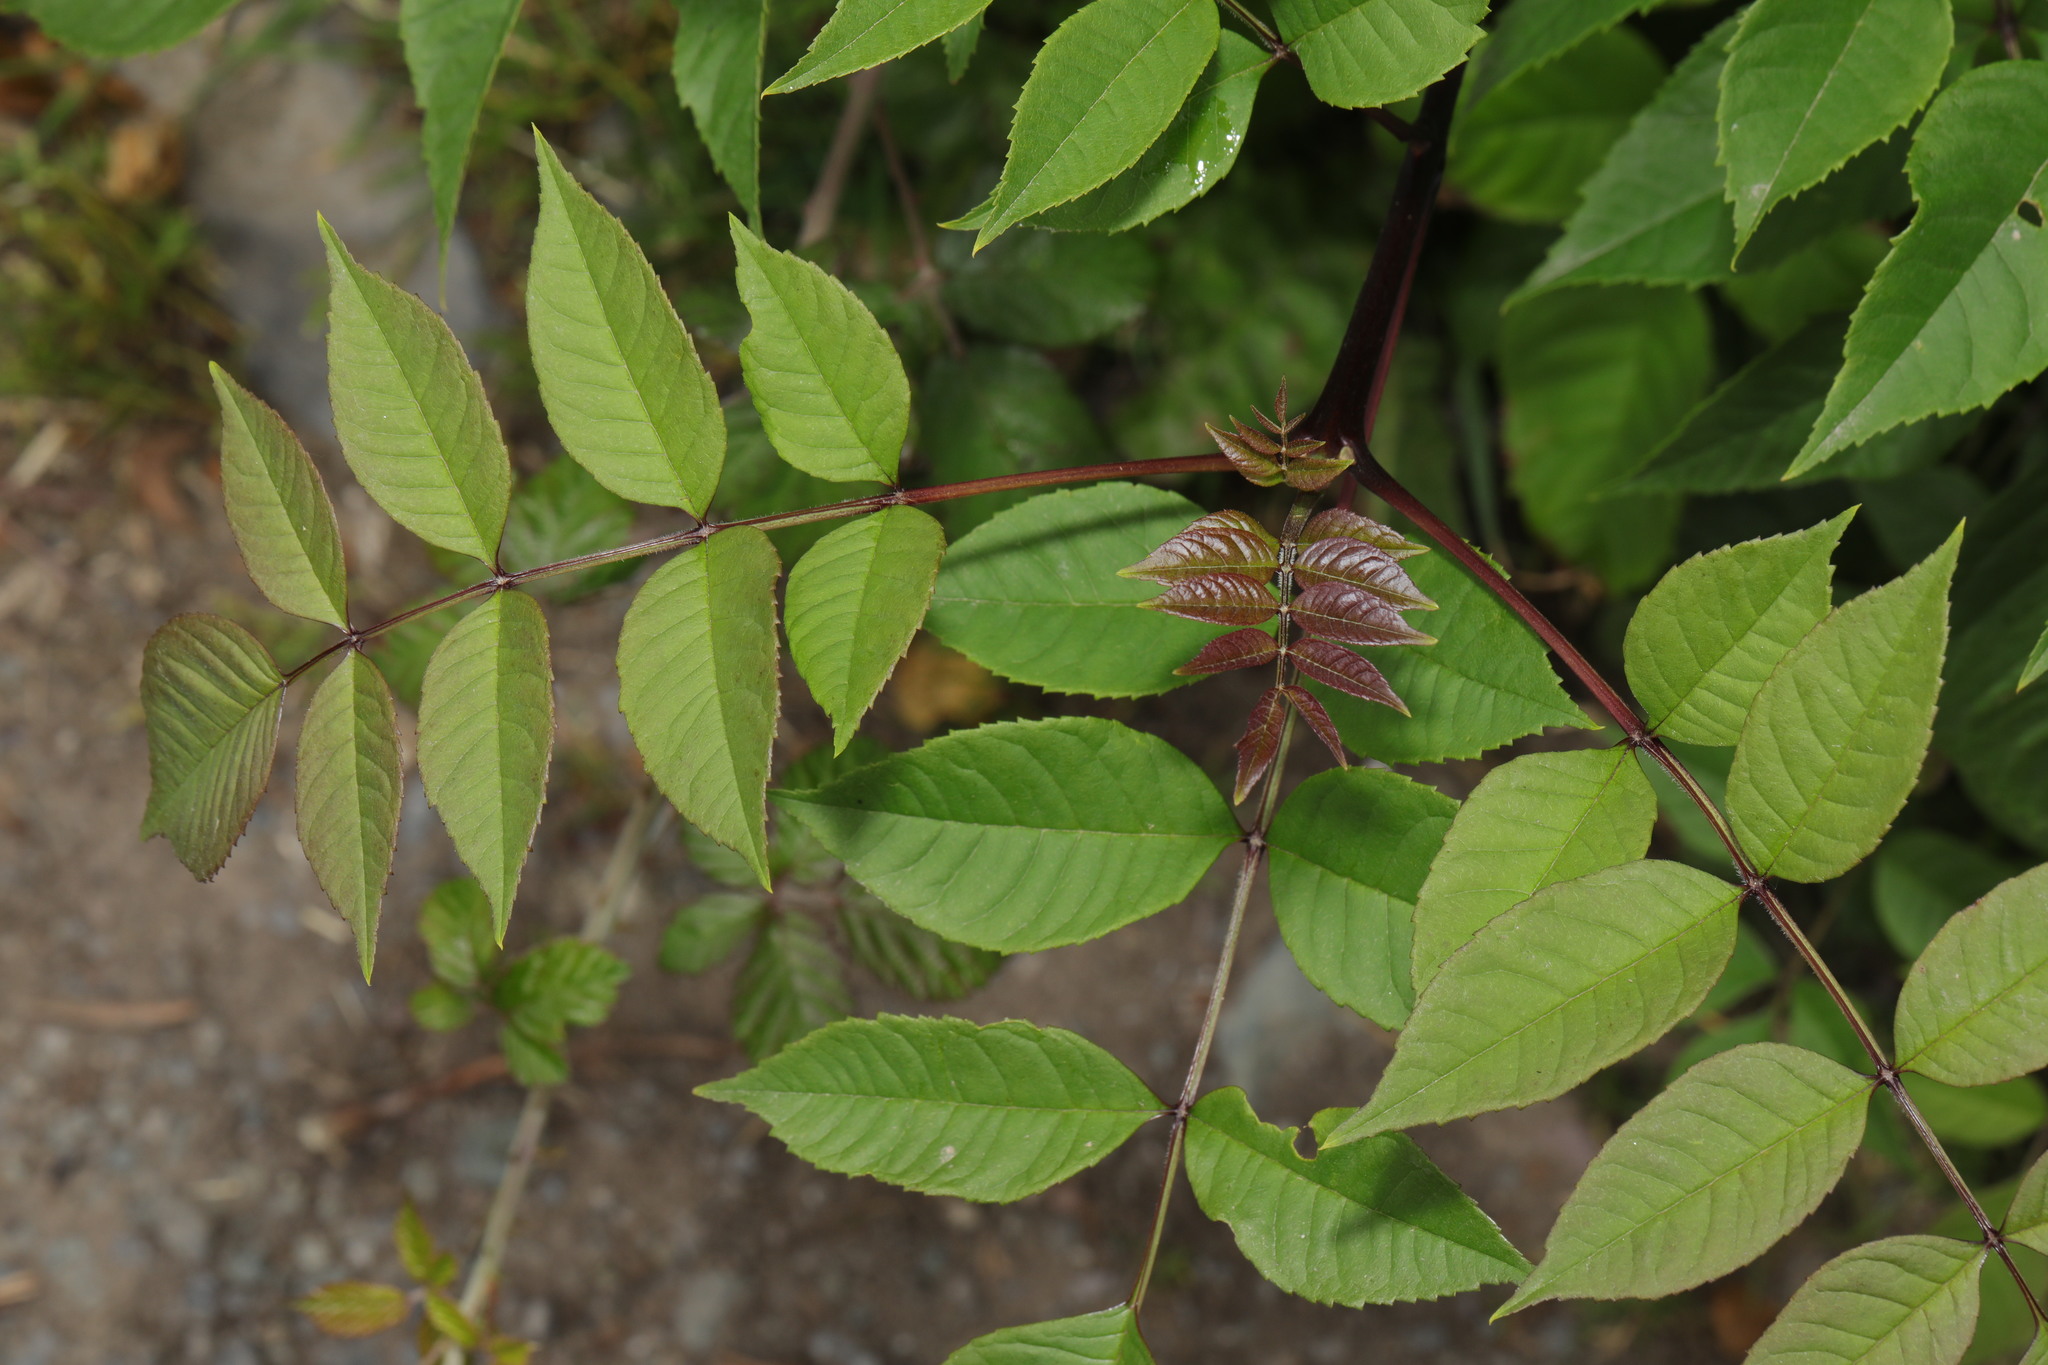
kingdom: Plantae
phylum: Tracheophyta
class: Magnoliopsida
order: Lamiales
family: Oleaceae
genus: Fraxinus
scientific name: Fraxinus excelsior
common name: European ash
